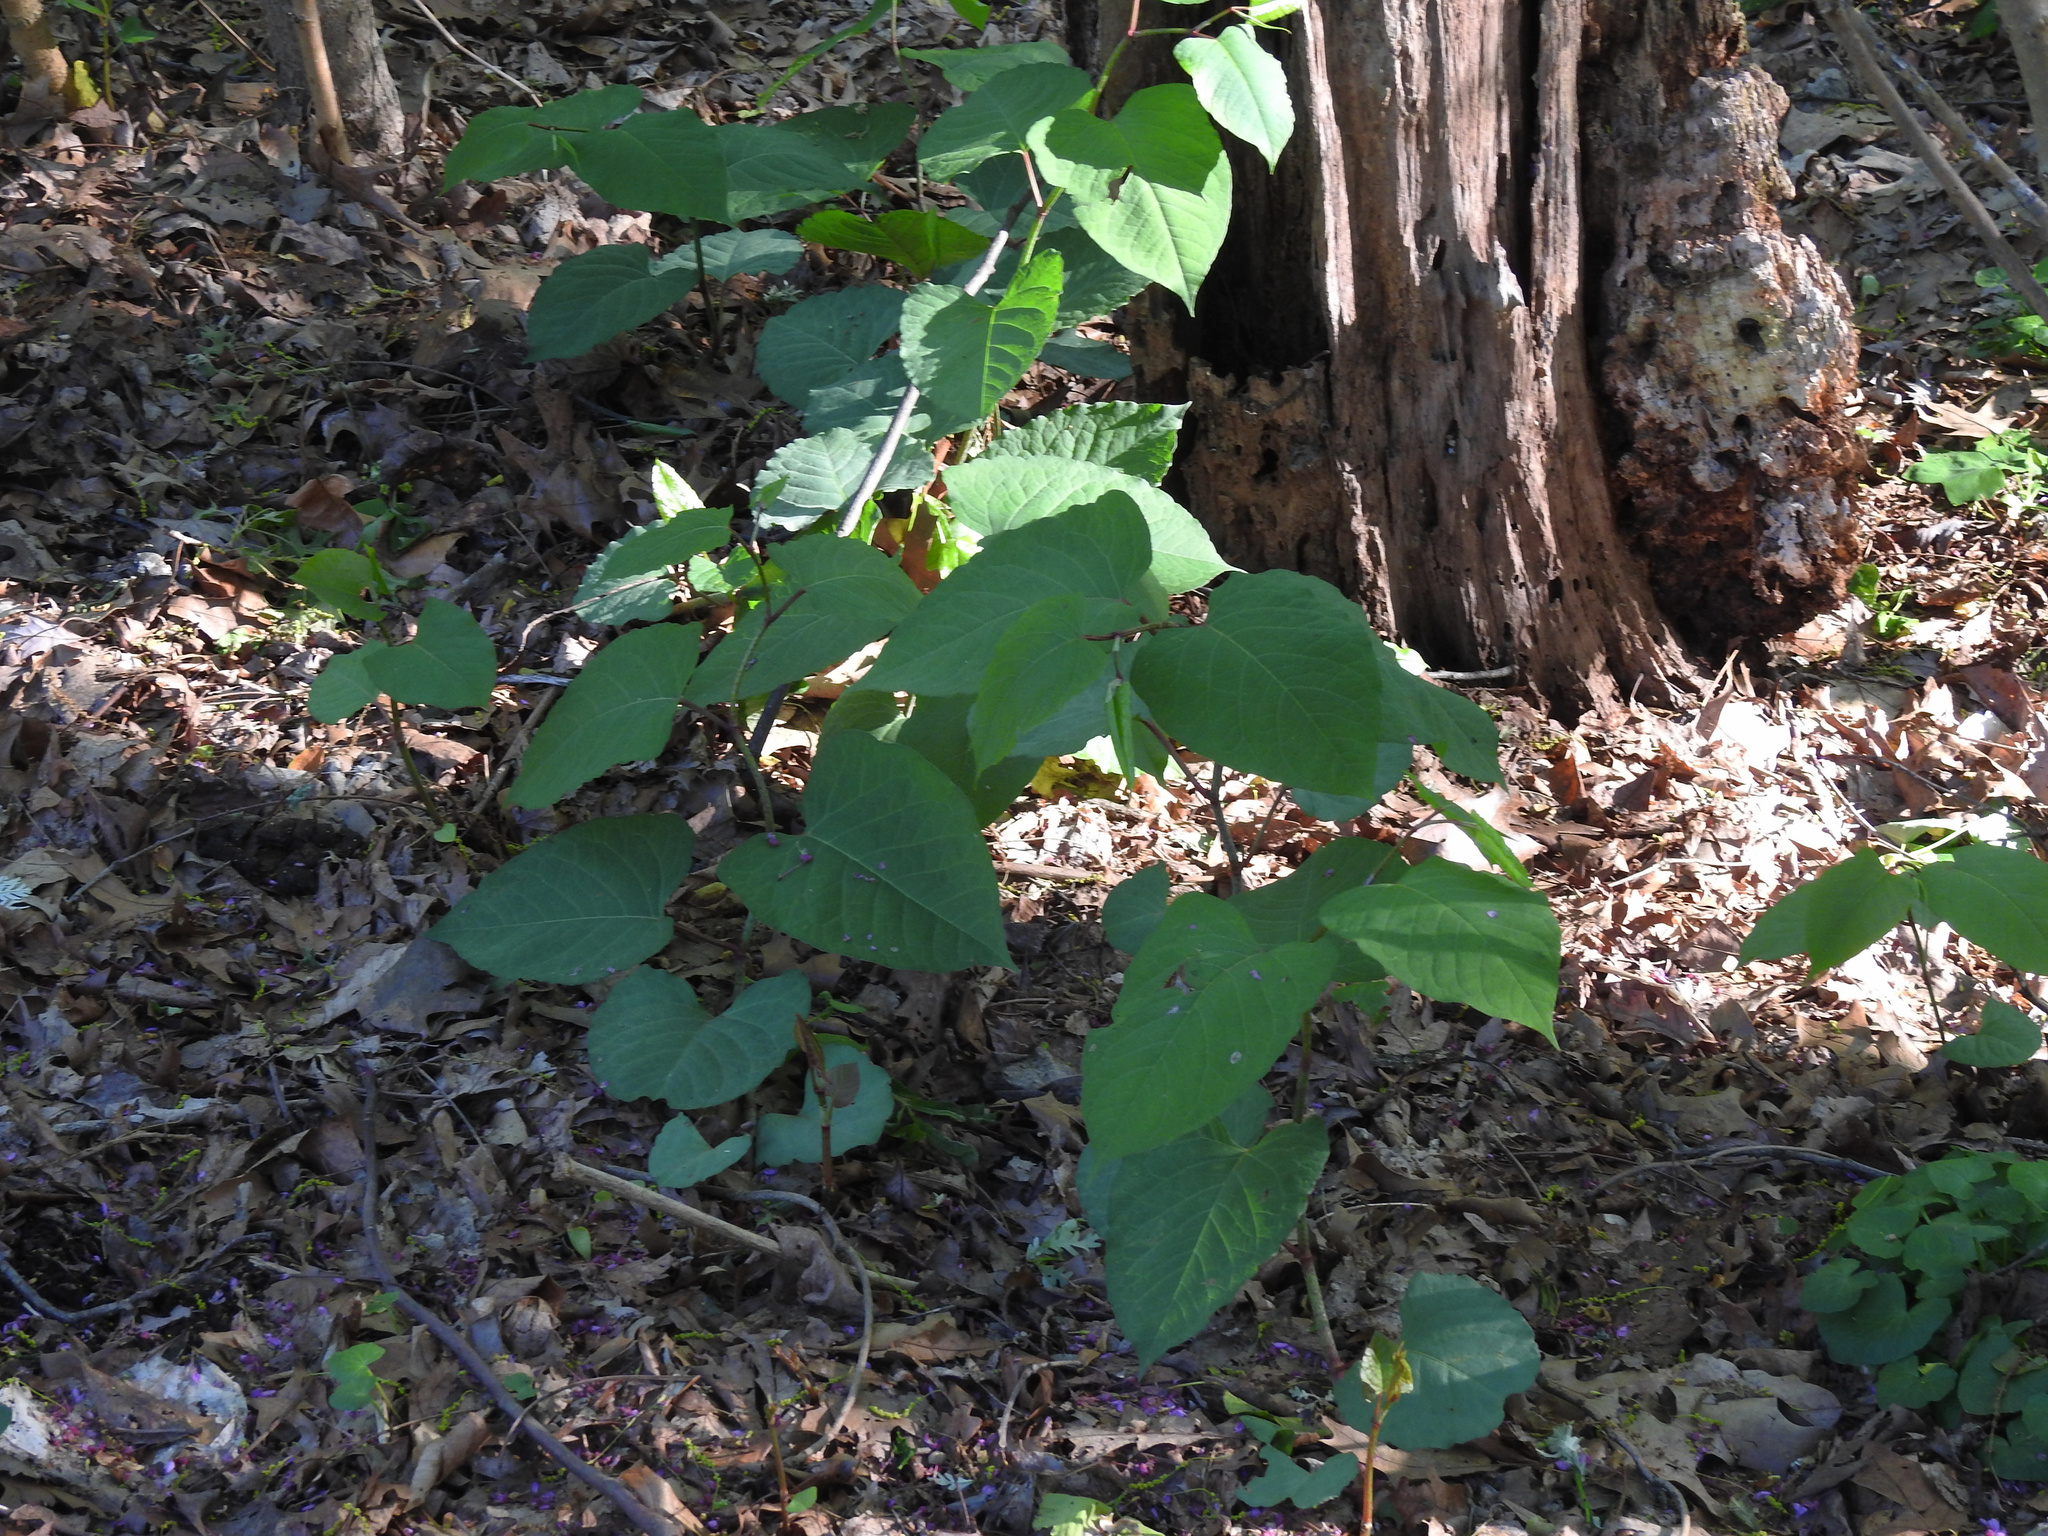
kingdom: Plantae
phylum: Tracheophyta
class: Magnoliopsida
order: Caryophyllales
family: Polygonaceae
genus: Reynoutria
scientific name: Reynoutria japonica
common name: Japanese knotweed
